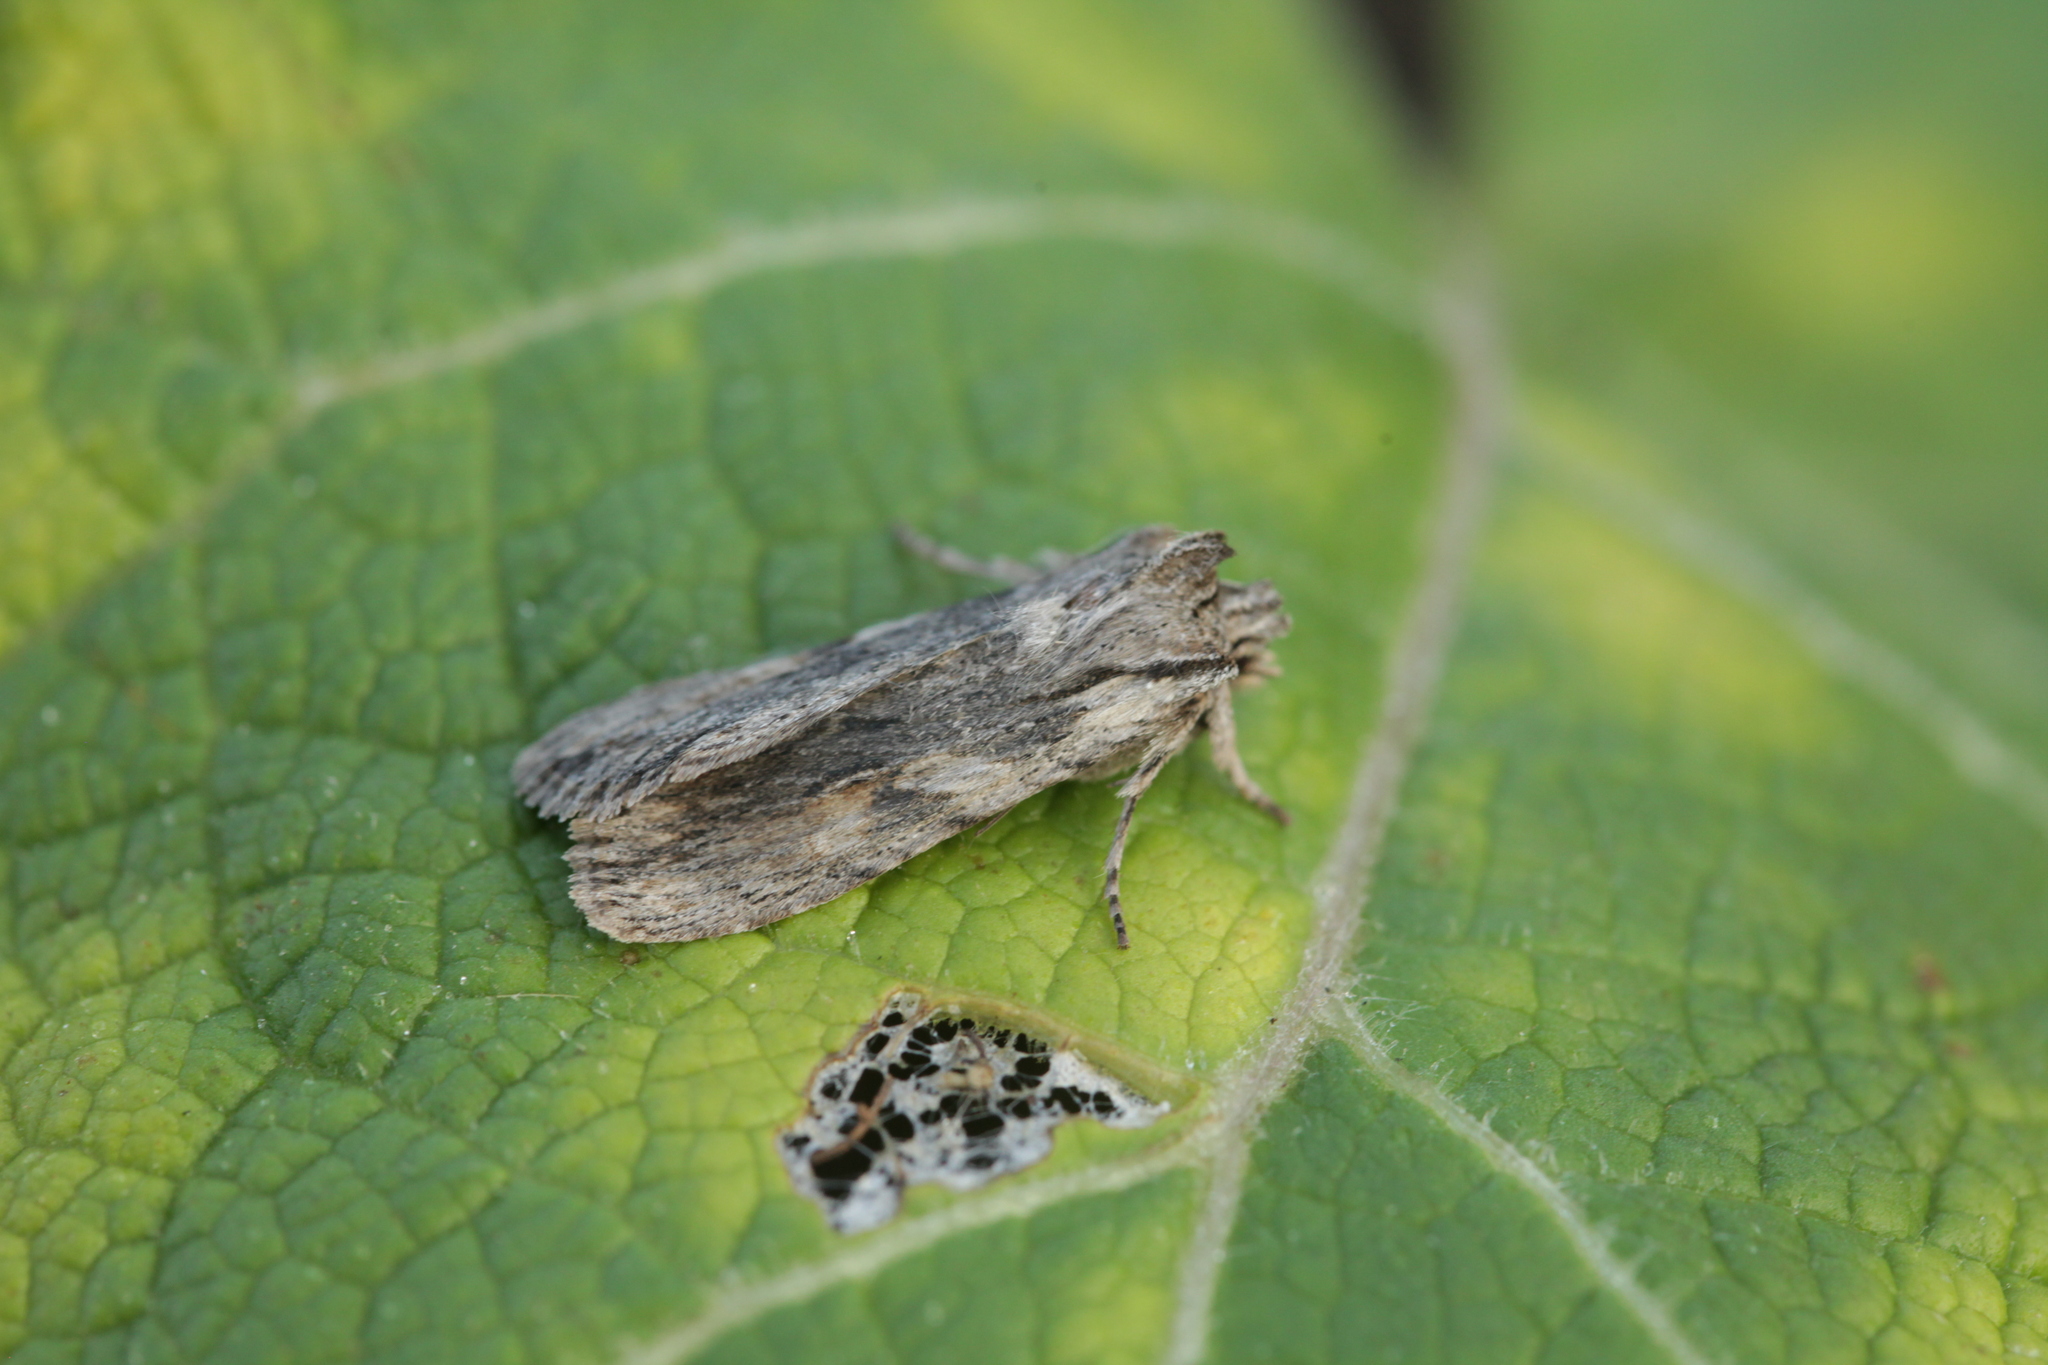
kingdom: Animalia
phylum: Arthropoda
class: Insecta
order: Lepidoptera
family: Noctuidae
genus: Lithophane
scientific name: Lithophane socia
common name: Pale pinion
